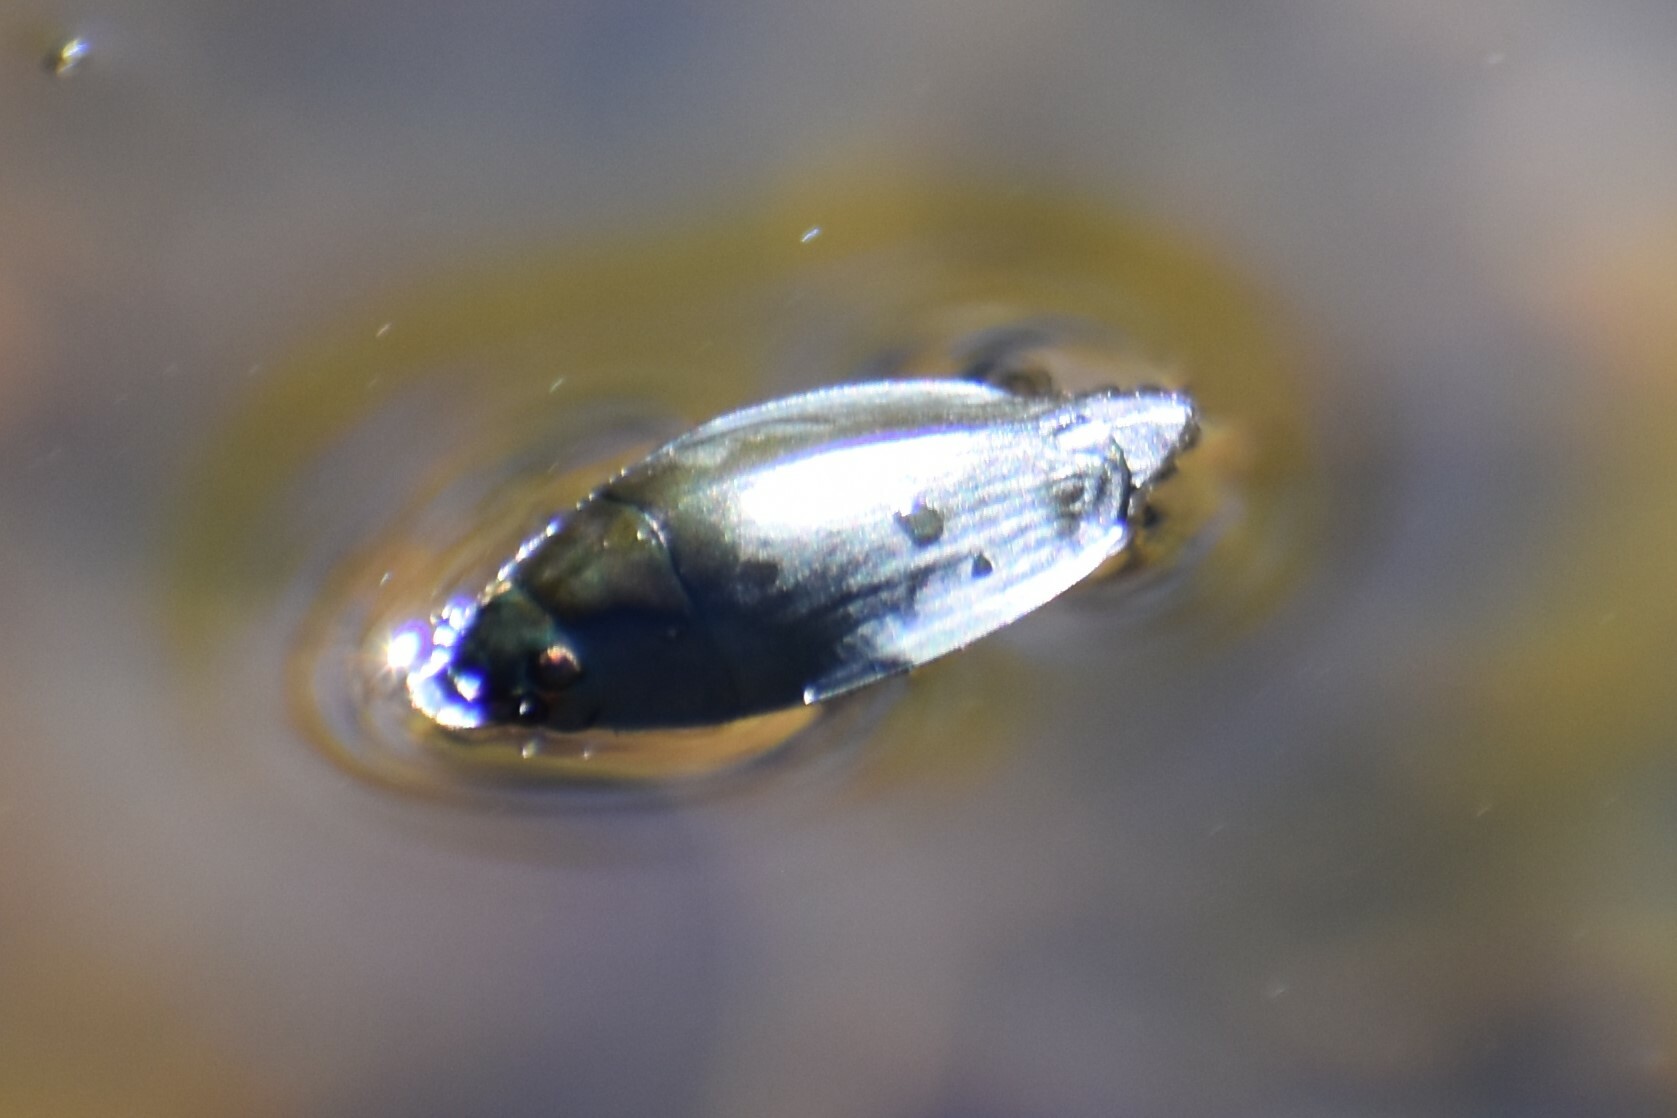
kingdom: Animalia
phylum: Arthropoda
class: Insecta
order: Coleoptera
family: Gyrinidae
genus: Dineutus
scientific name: Dineutus
